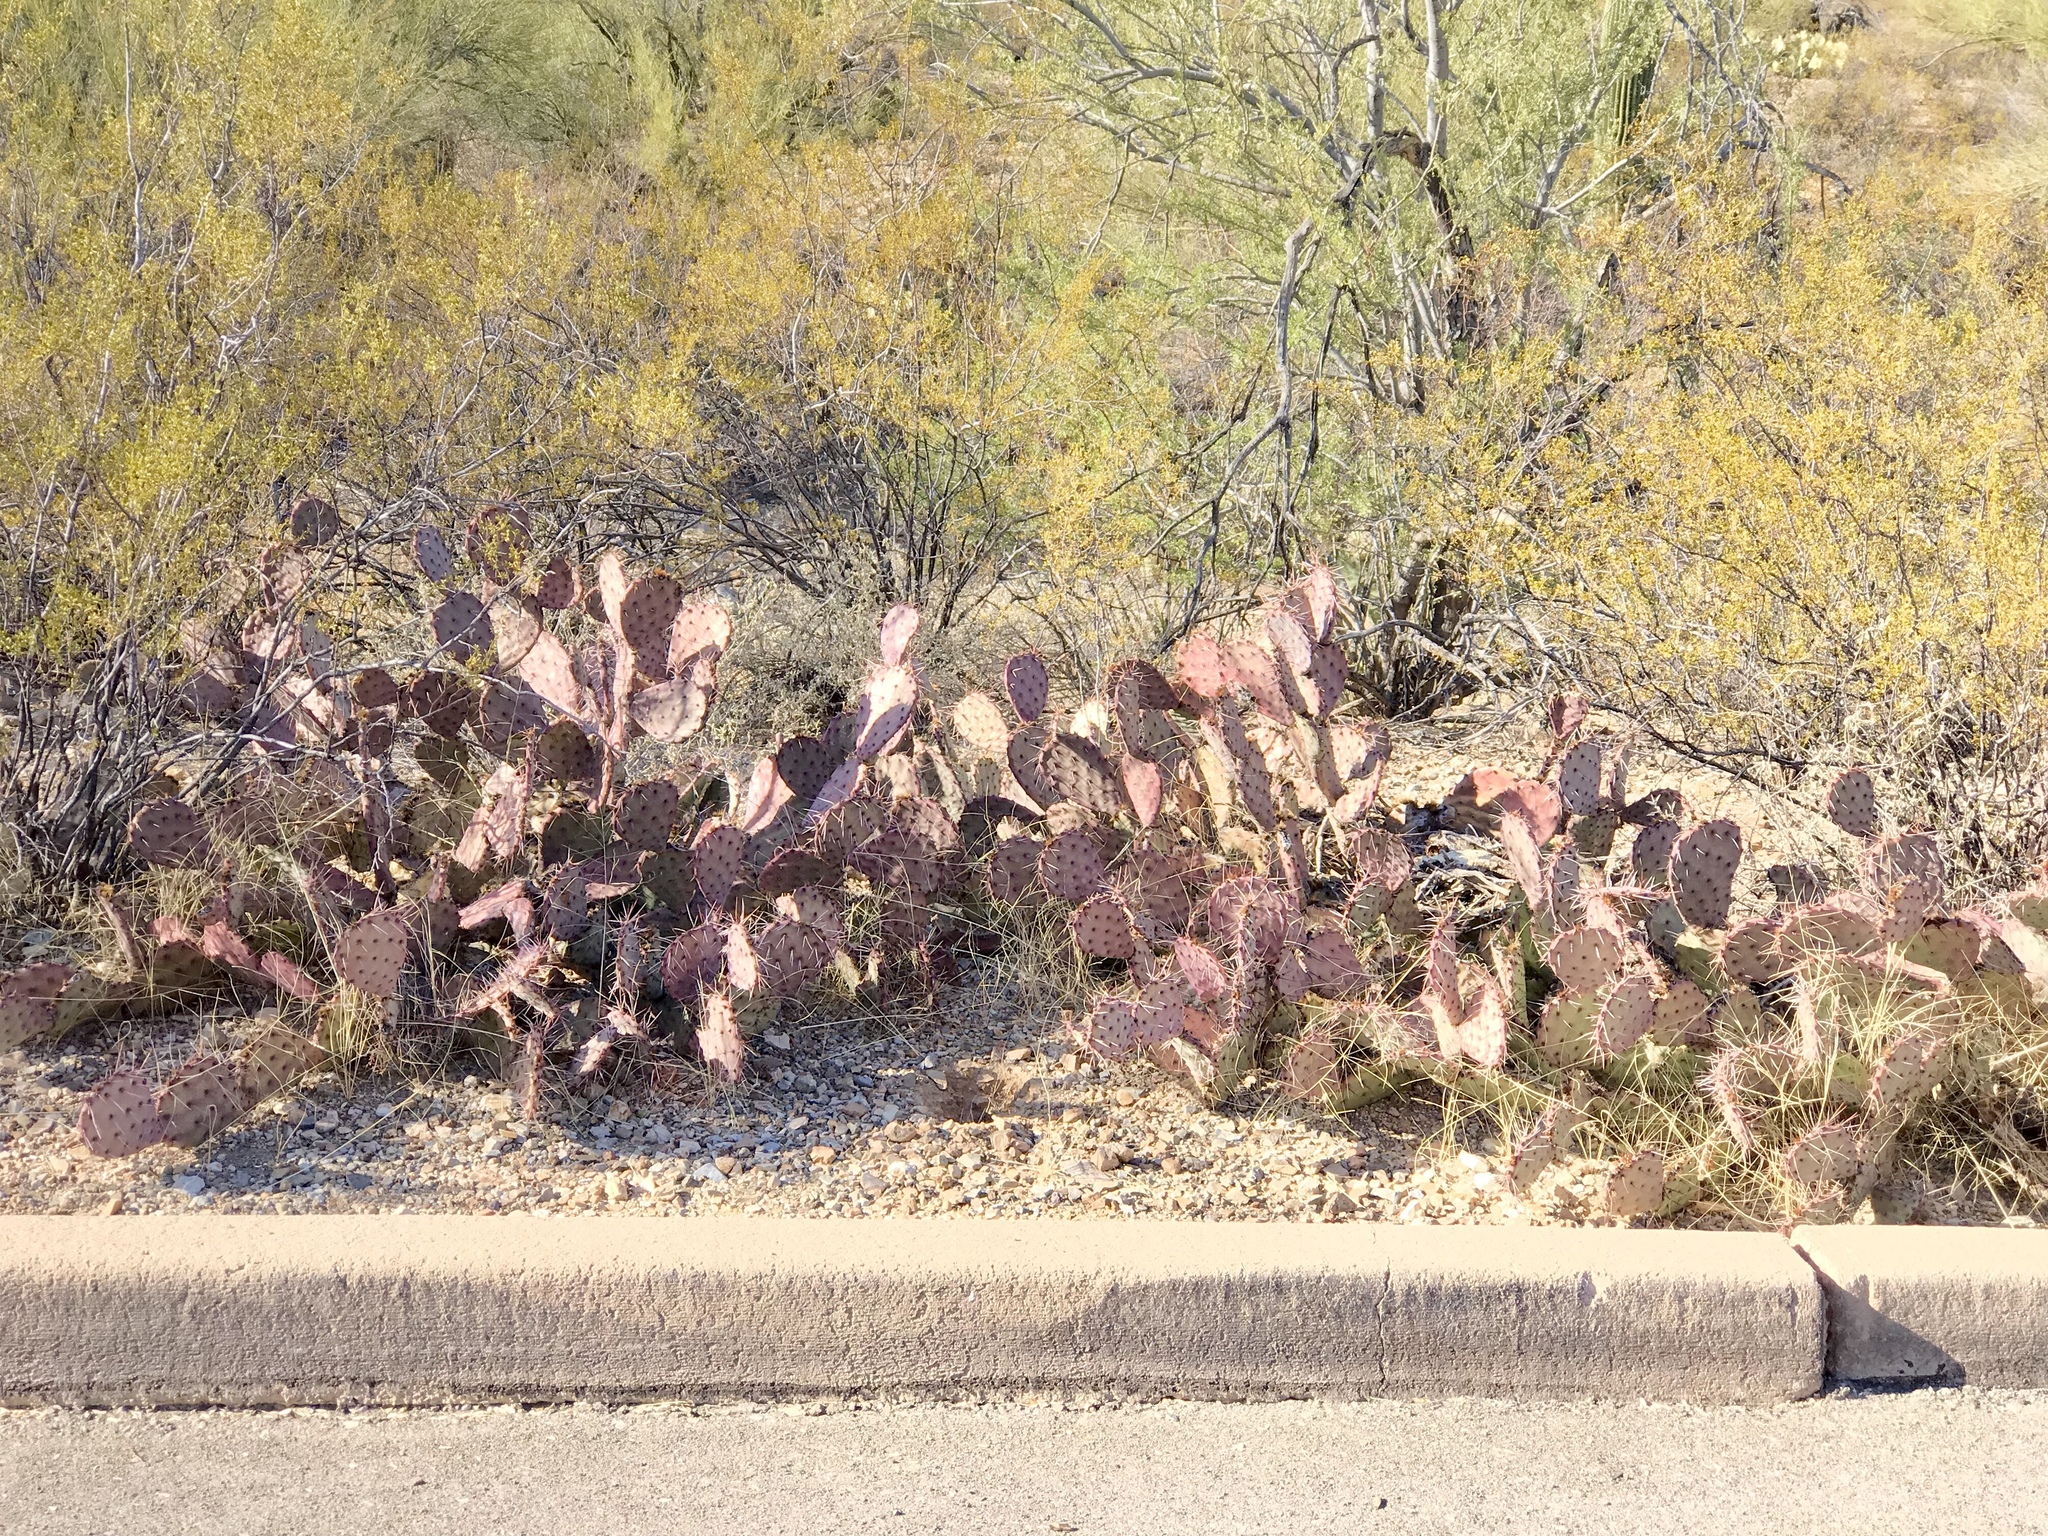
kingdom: Plantae
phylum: Tracheophyta
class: Magnoliopsida
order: Caryophyllales
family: Cactaceae
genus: Opuntia
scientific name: Opuntia macrocentra
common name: Purple prickly-pear
